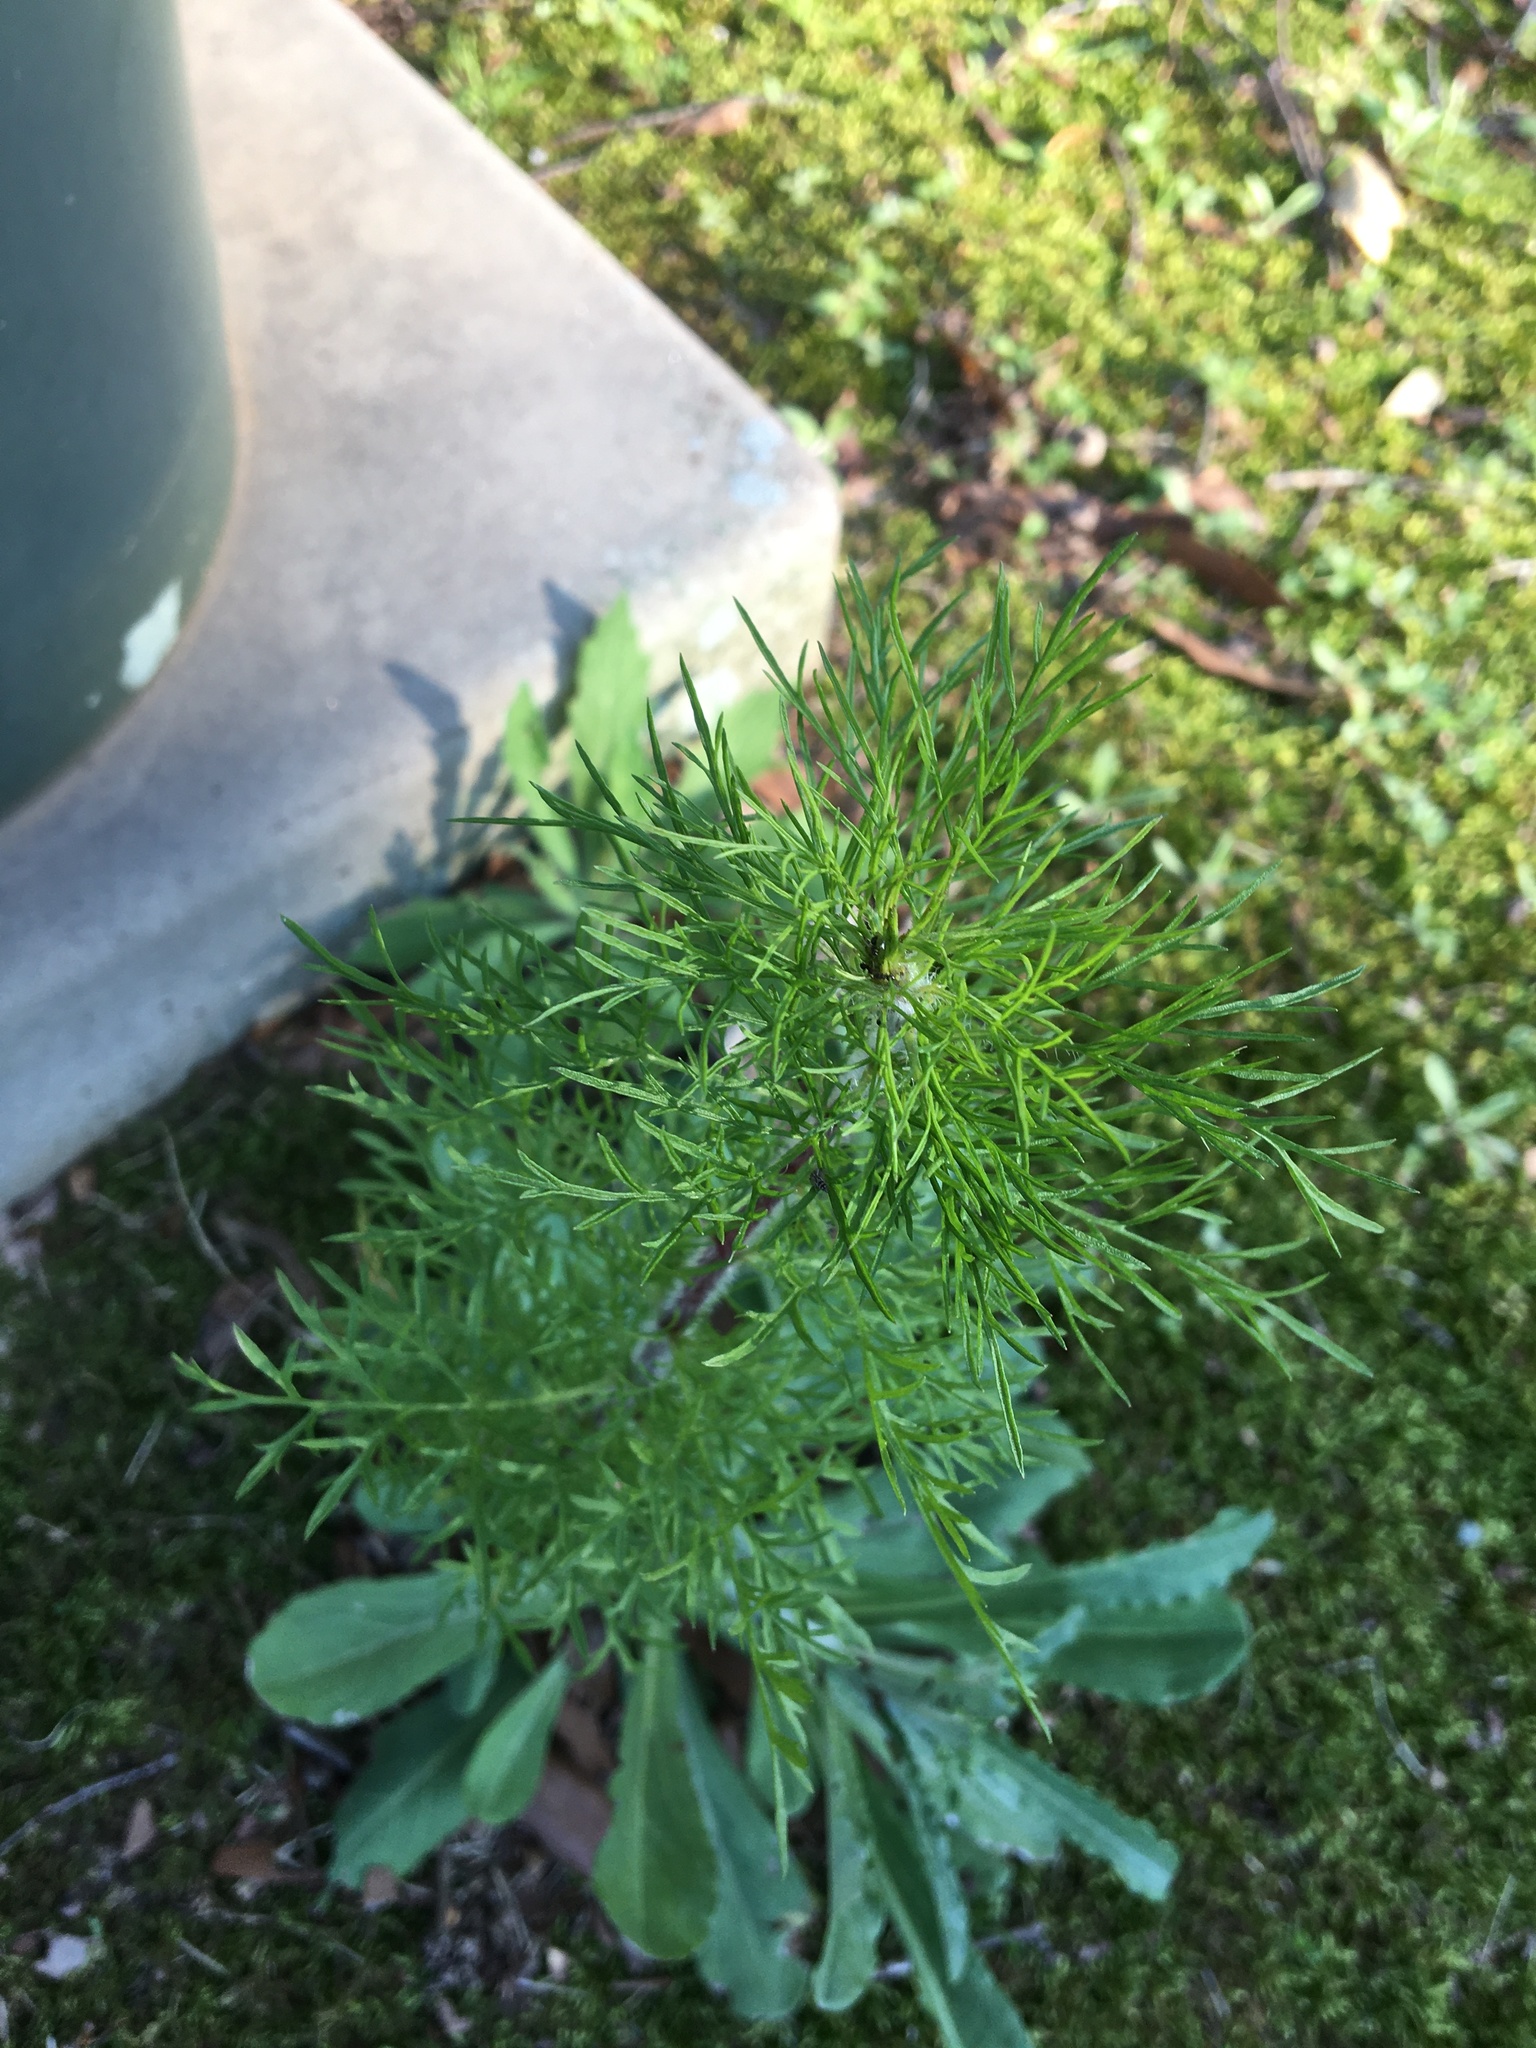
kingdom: Plantae
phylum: Tracheophyta
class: Magnoliopsida
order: Asterales
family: Asteraceae
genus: Eupatorium
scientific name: Eupatorium capillifolium
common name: Dog-fennel
